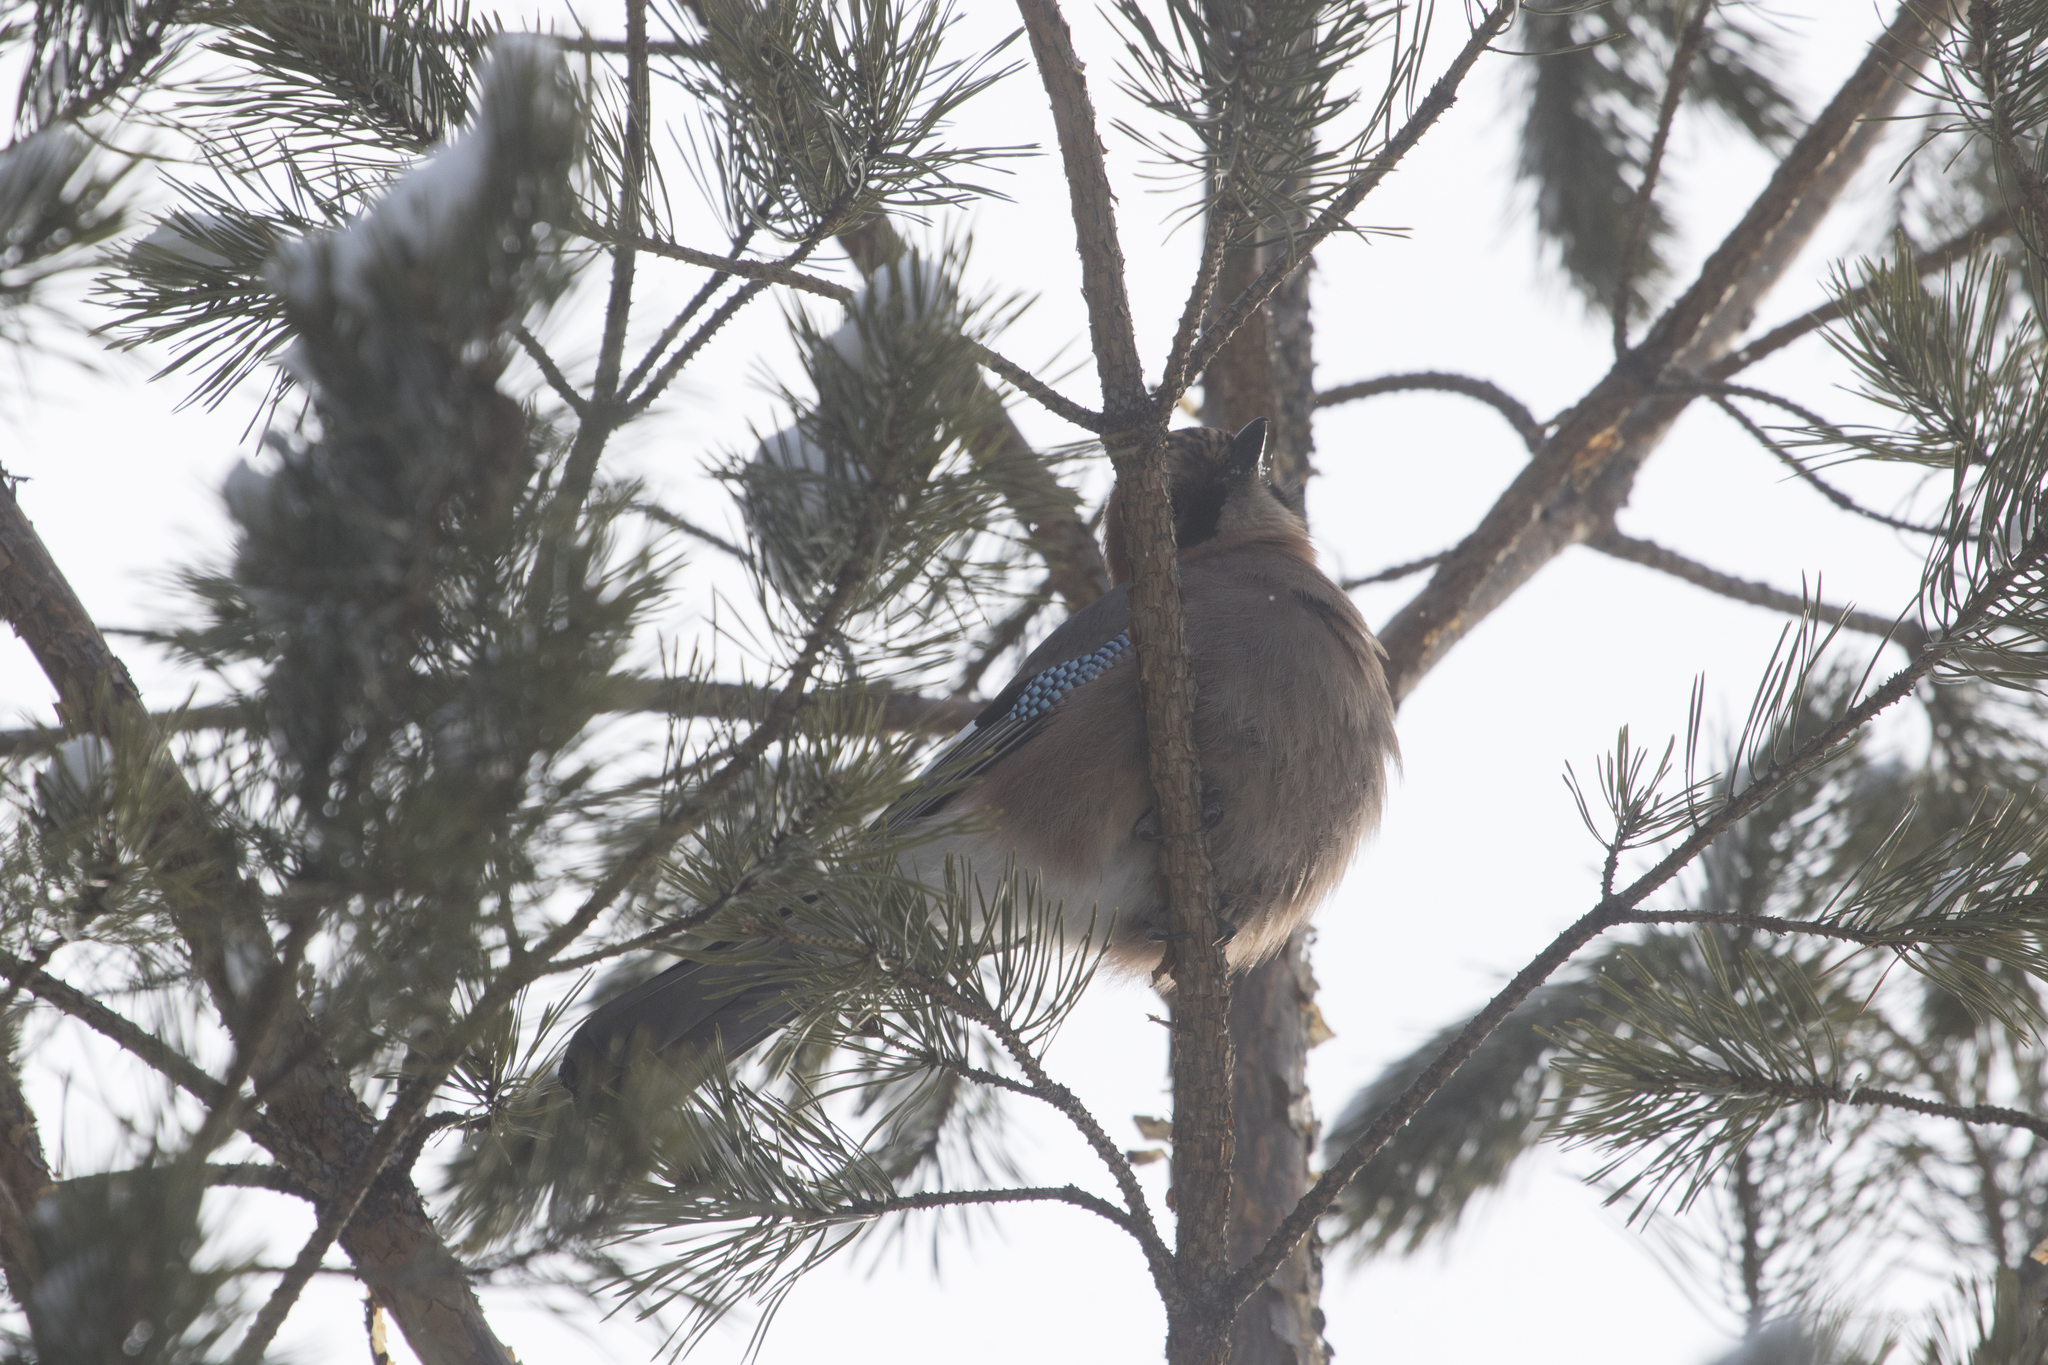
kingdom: Animalia
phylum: Chordata
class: Aves
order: Passeriformes
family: Corvidae
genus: Garrulus
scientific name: Garrulus glandarius
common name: Eurasian jay
